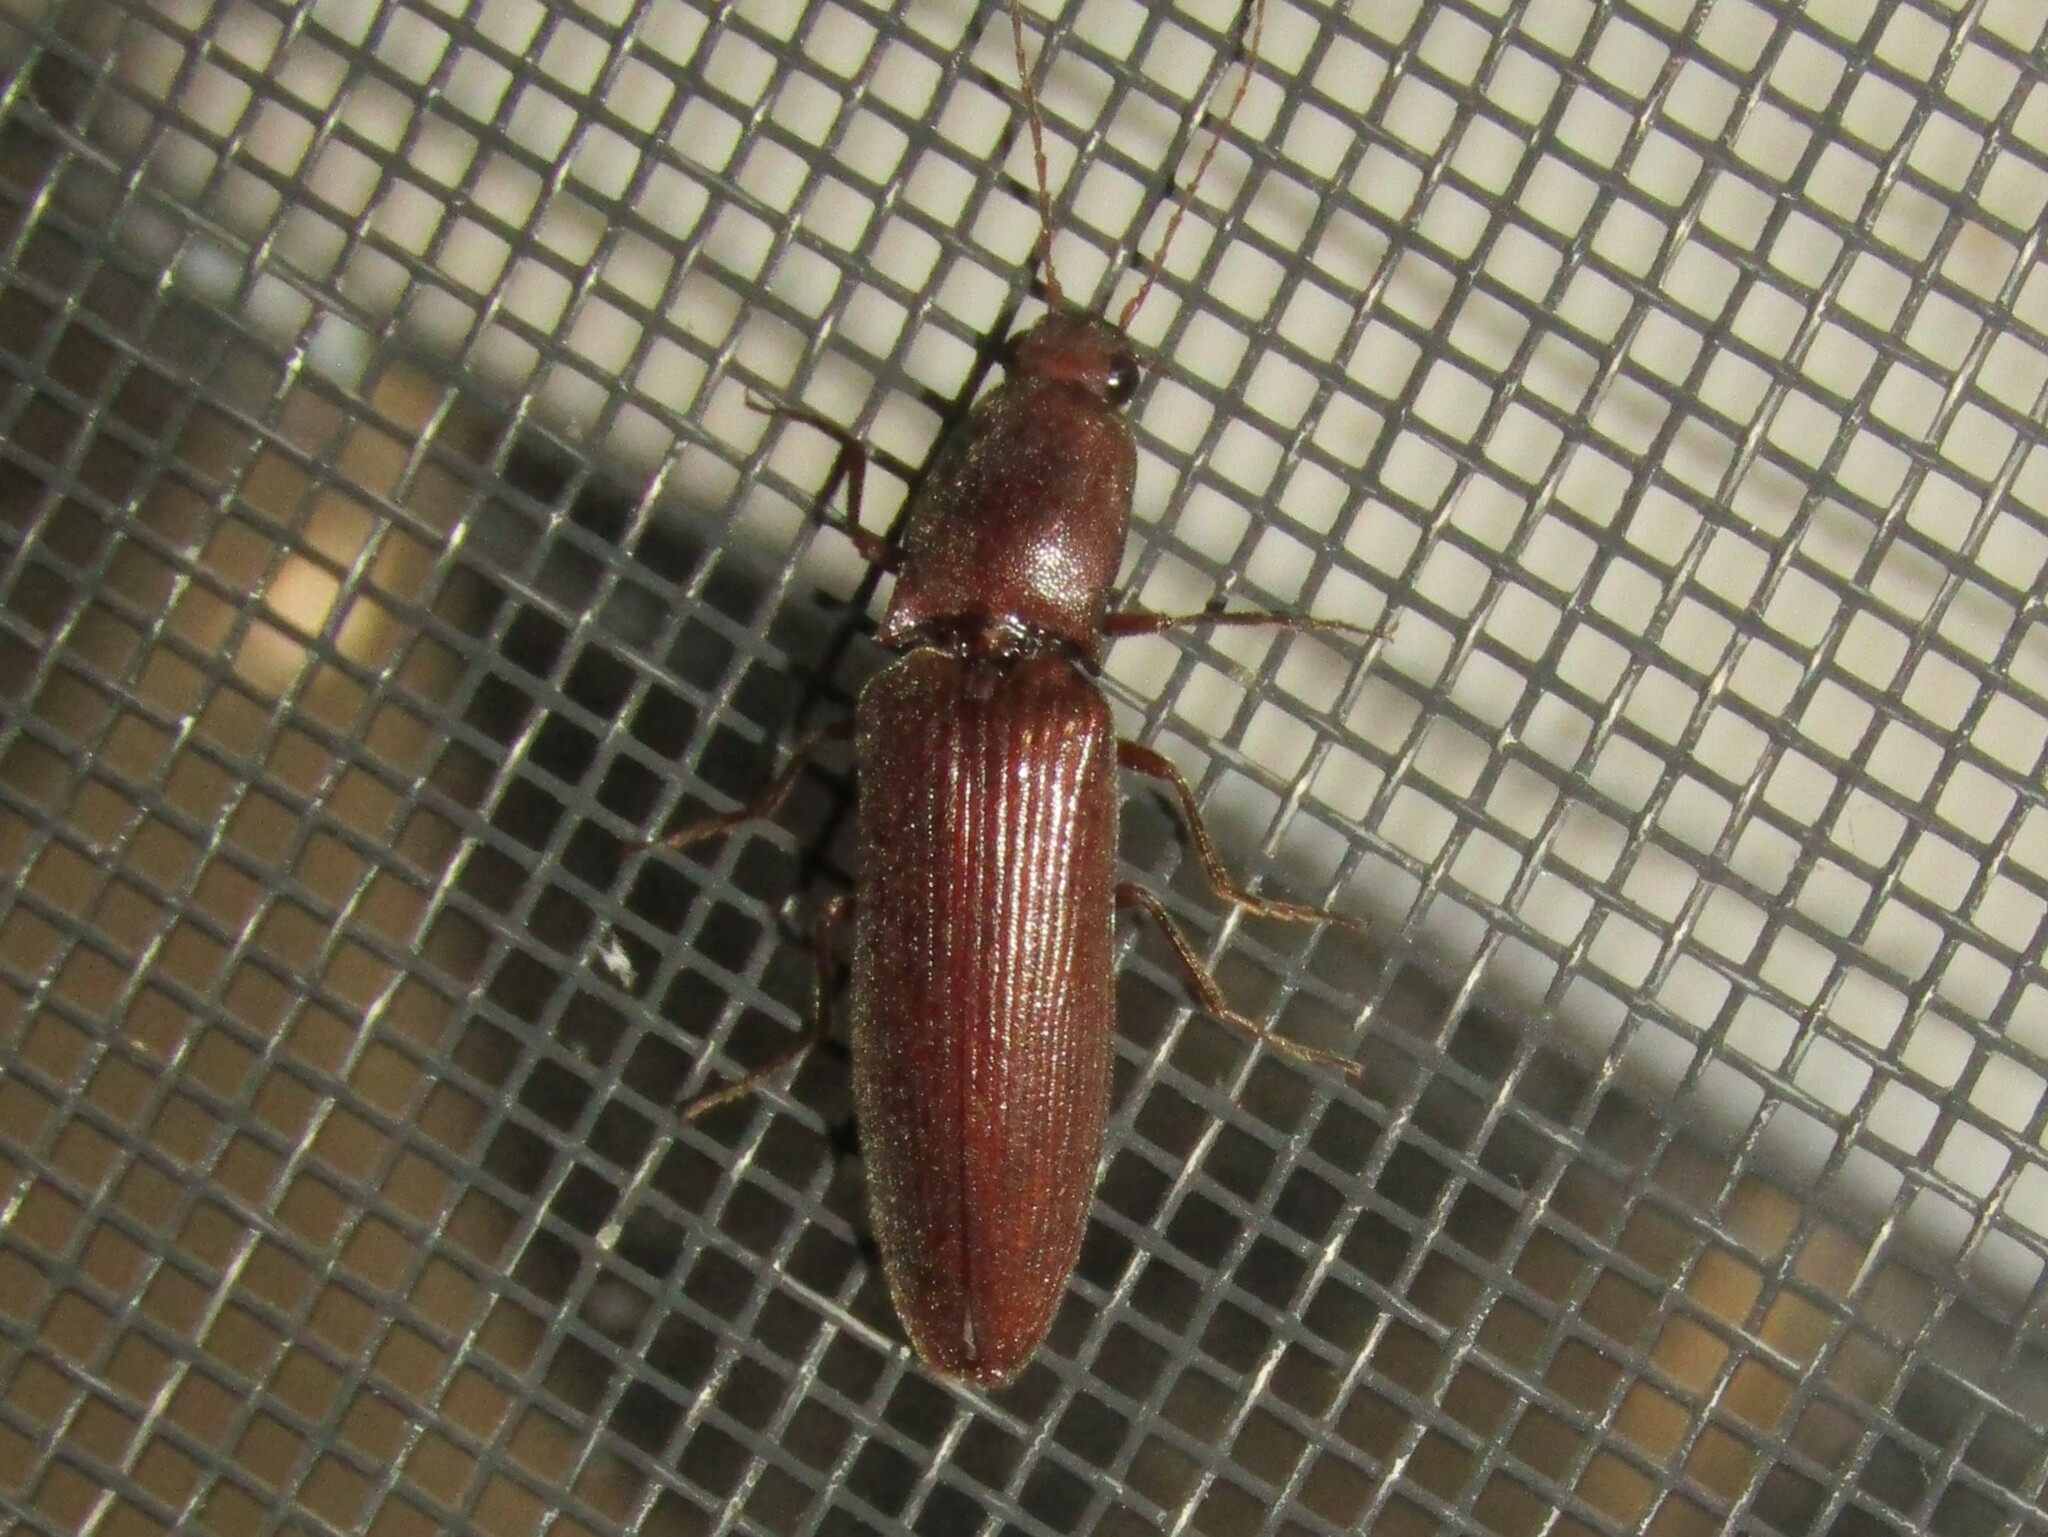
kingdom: Animalia
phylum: Arthropoda
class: Insecta
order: Coleoptera
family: Elateridae
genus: Proludius
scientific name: Proludius pyrros
